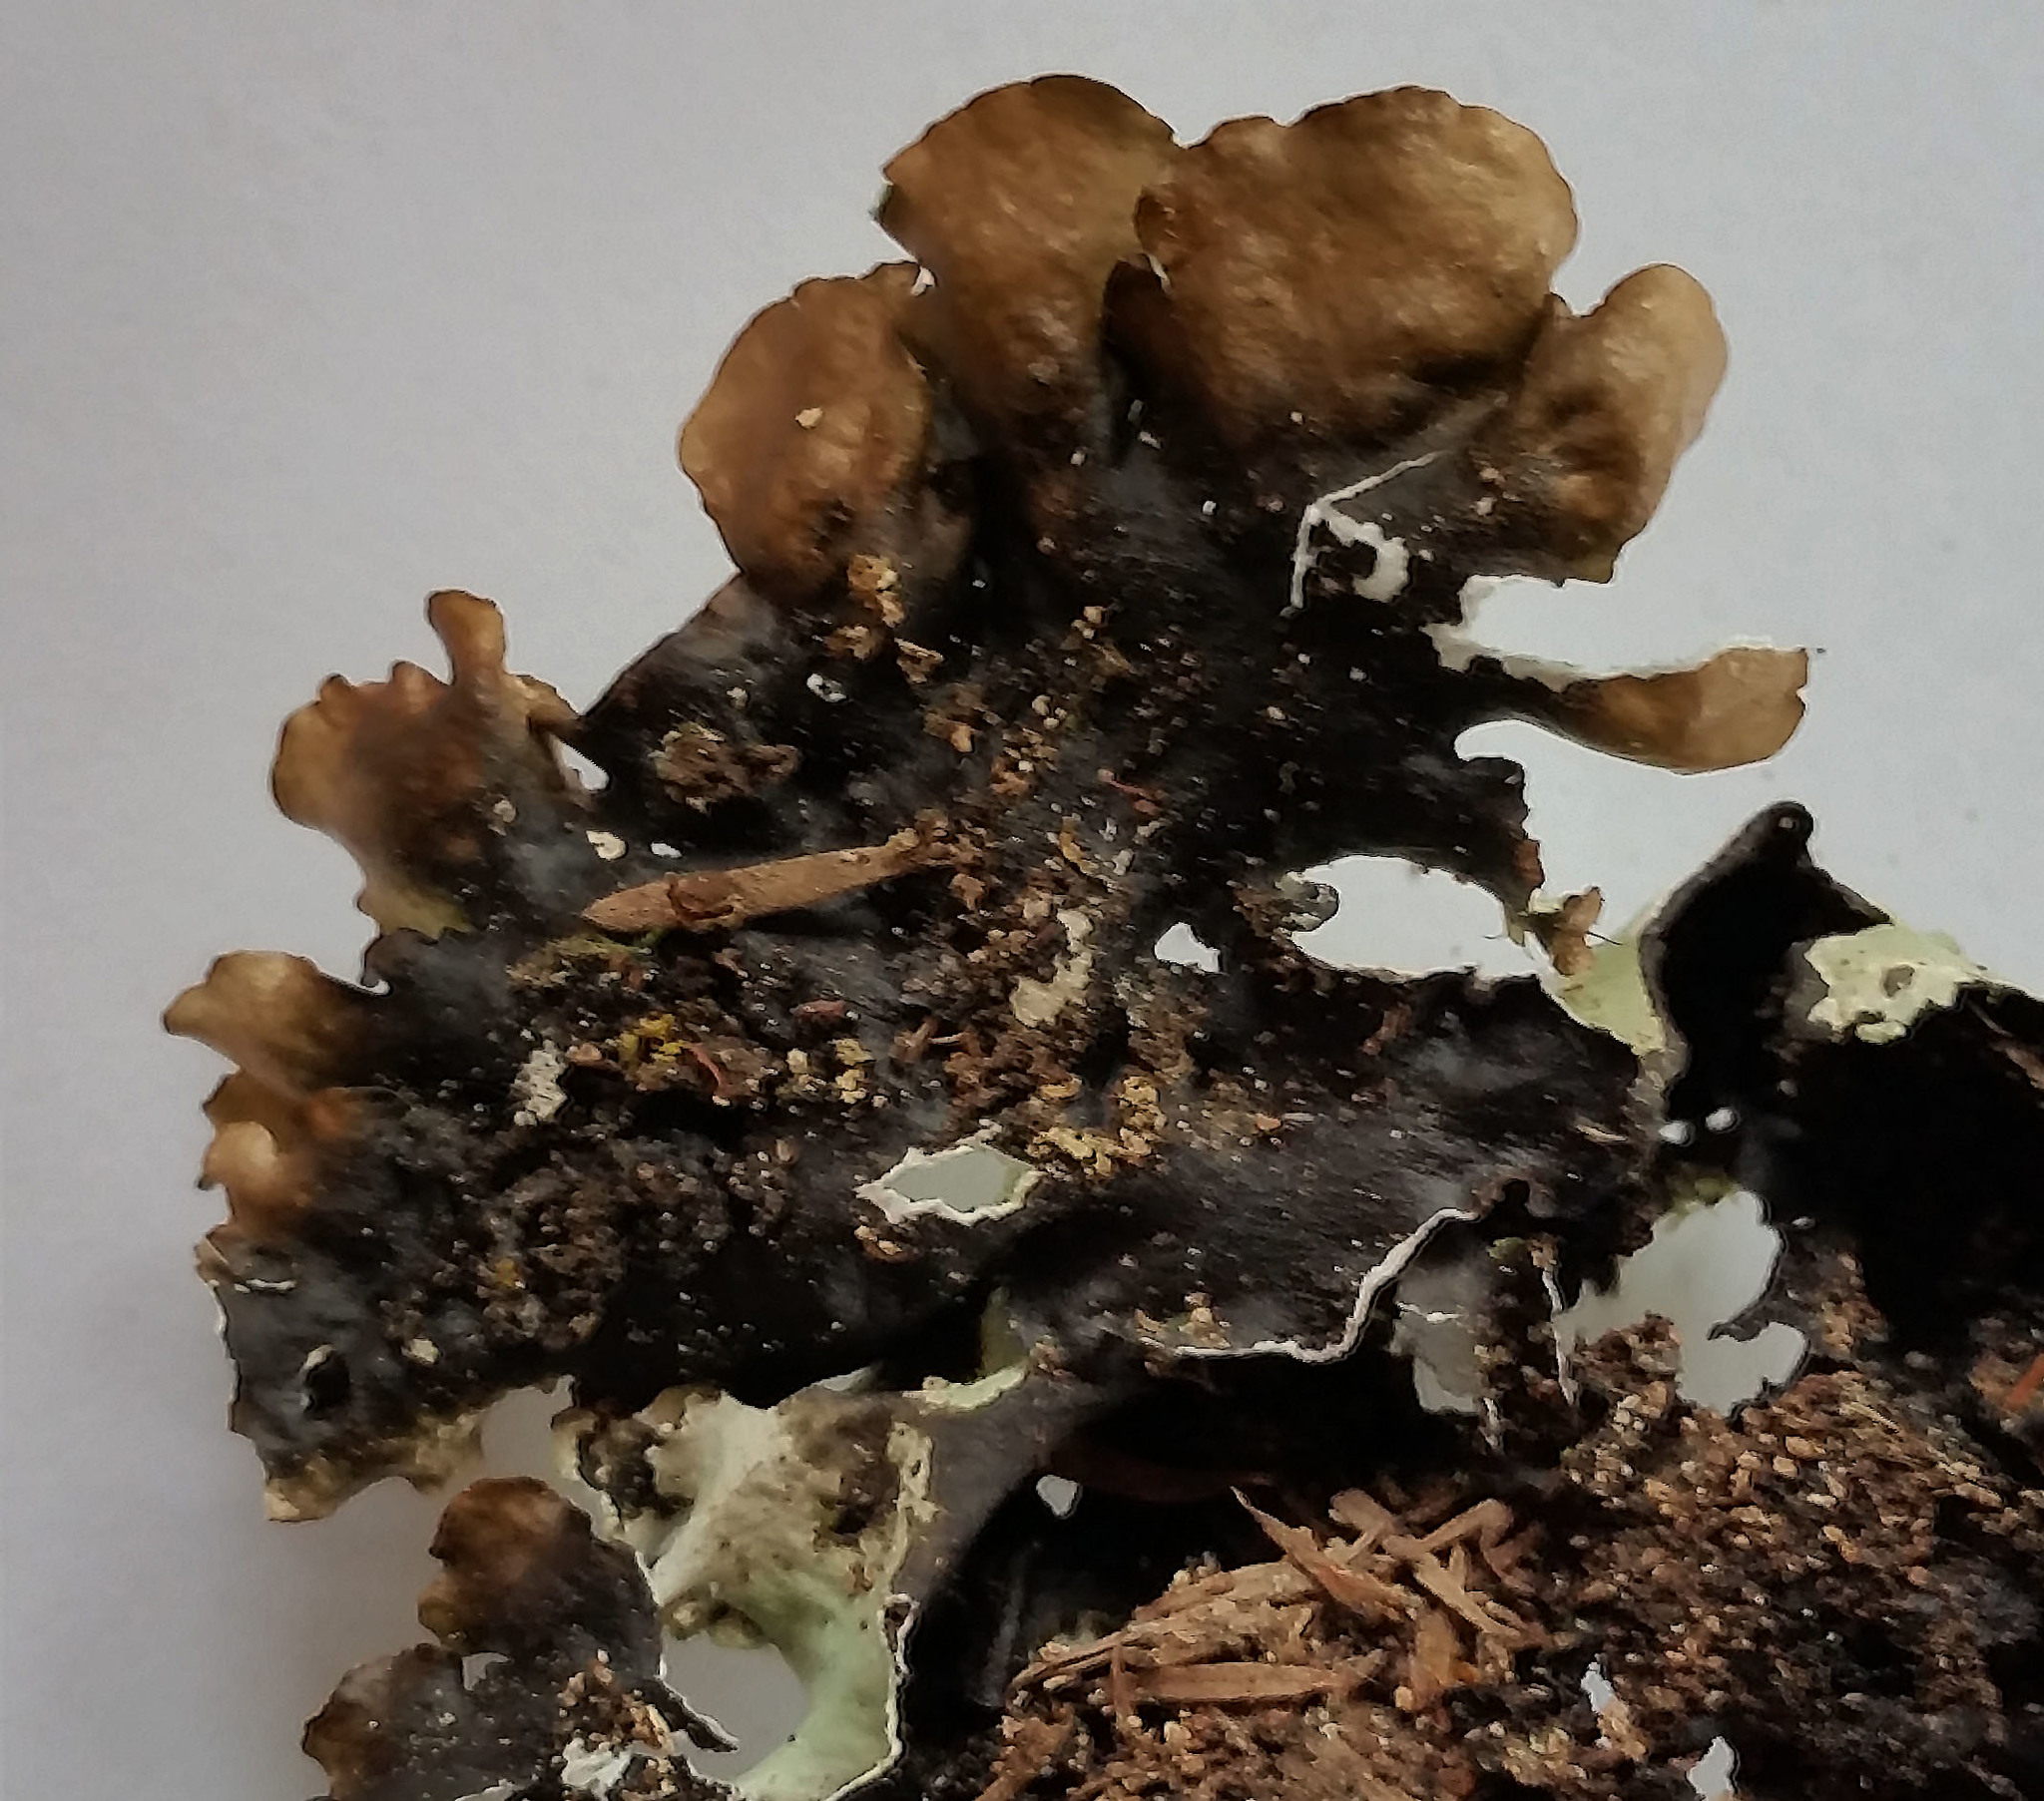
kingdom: Fungi
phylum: Ascomycota
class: Lecanoromycetes
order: Lecanorales
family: Parmeliaceae
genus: Parmotrema
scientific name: Parmotrema robustum
